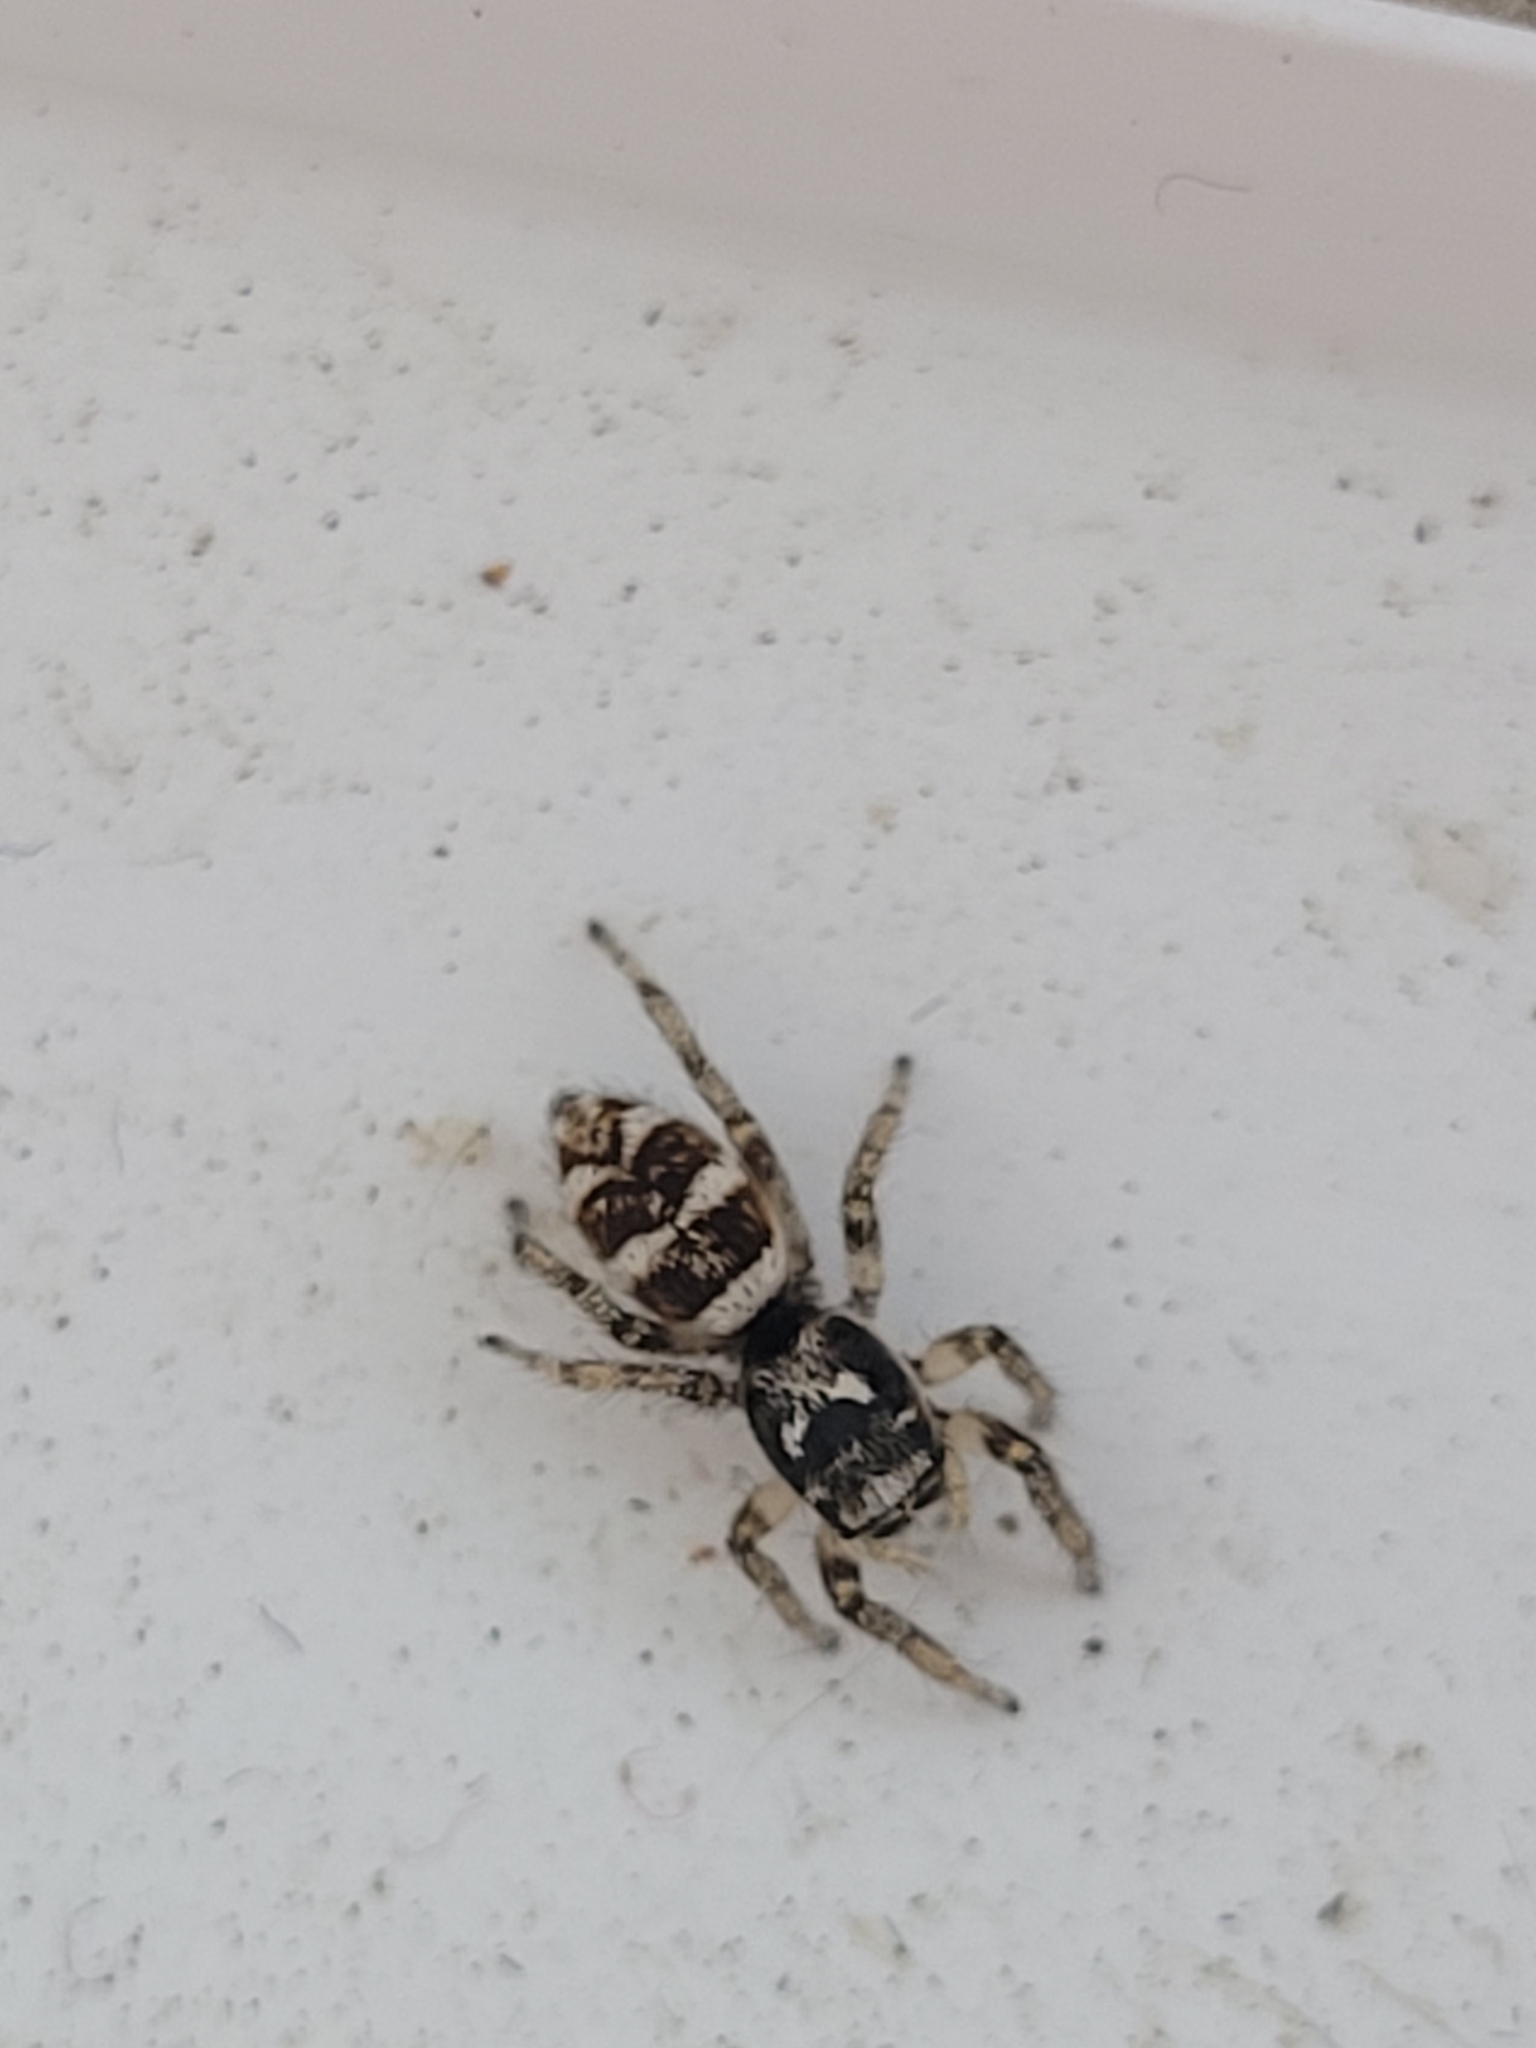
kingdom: Animalia
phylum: Arthropoda
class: Arachnida
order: Araneae
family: Salticidae
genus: Salticus
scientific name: Salticus scenicus
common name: Zebra jumper
